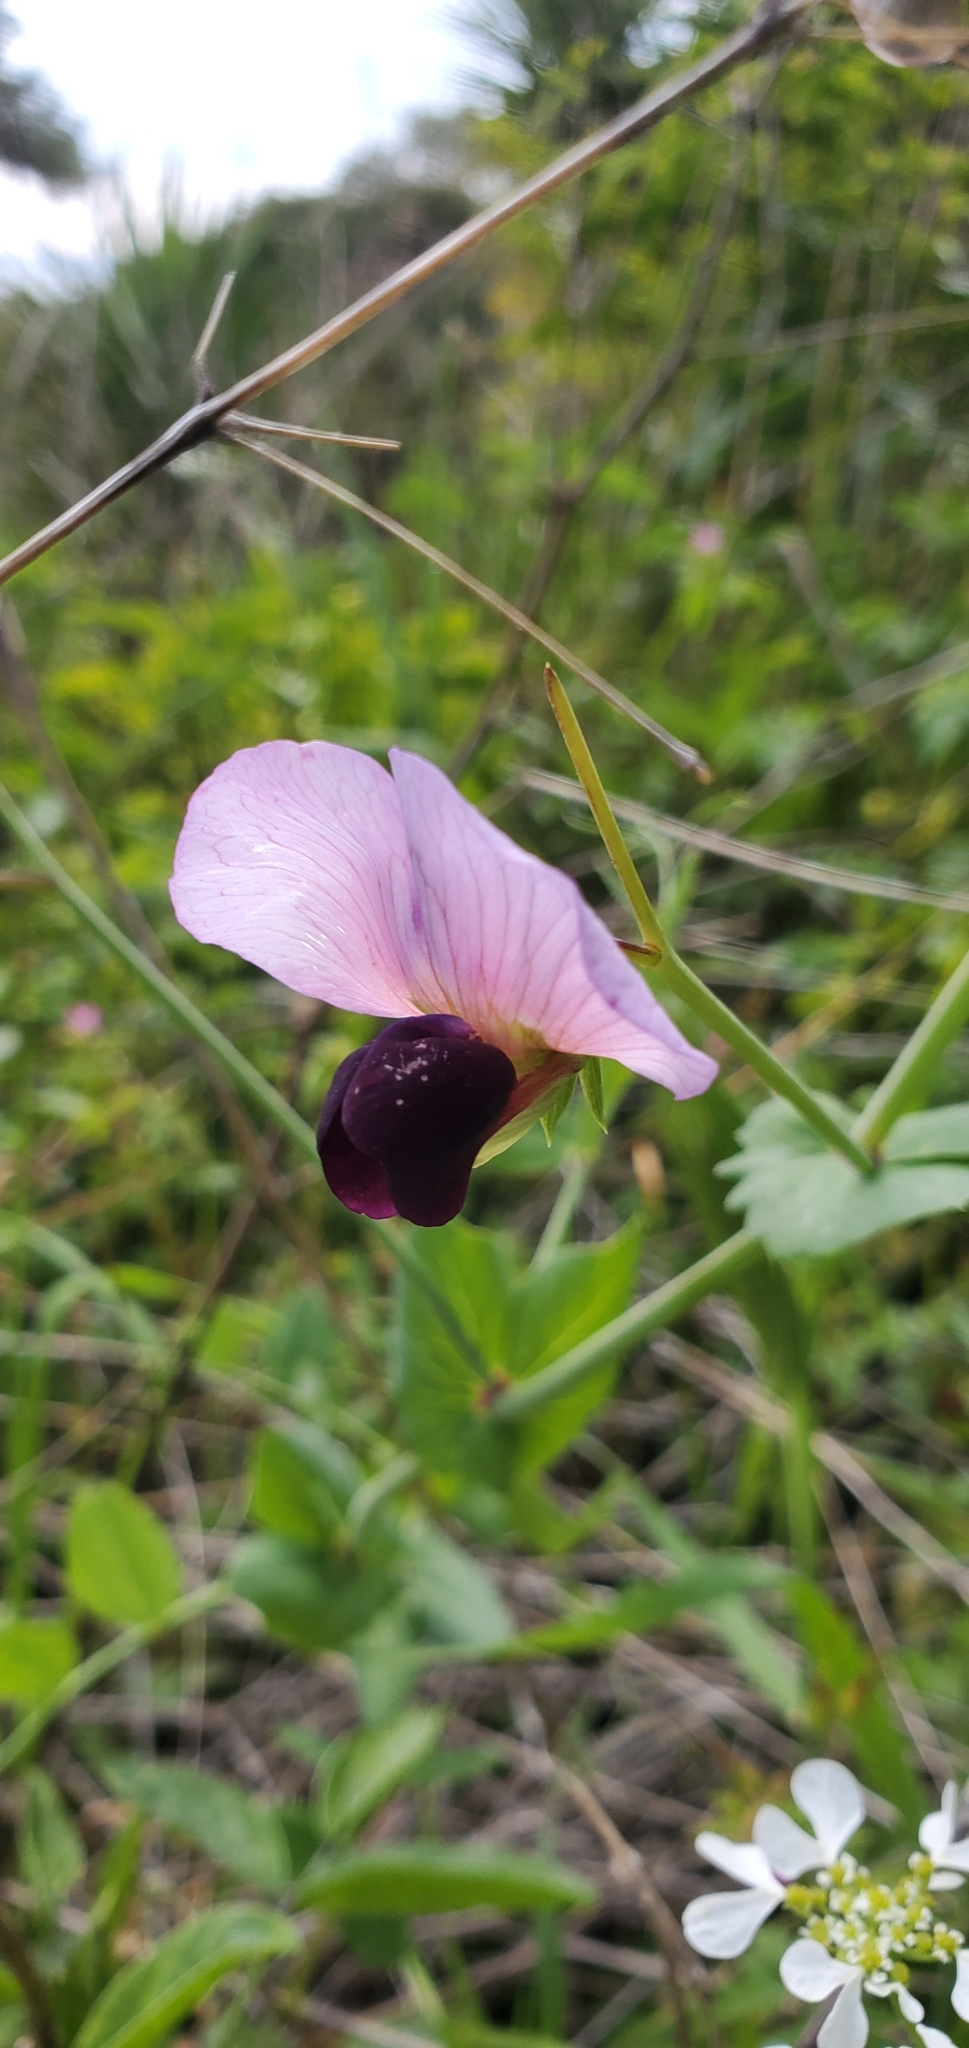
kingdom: Plantae
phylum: Tracheophyta
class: Magnoliopsida
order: Fabales
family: Fabaceae
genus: Lathyrus
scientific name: Lathyrus oleraceus
